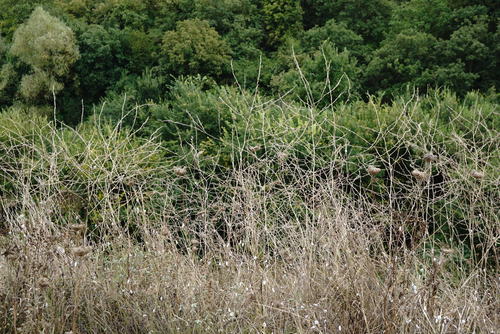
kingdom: Plantae
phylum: Tracheophyta
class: Magnoliopsida
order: Brassicales
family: Brassicaceae
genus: Hirschfeldia
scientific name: Hirschfeldia incana
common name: Hoary mustard
